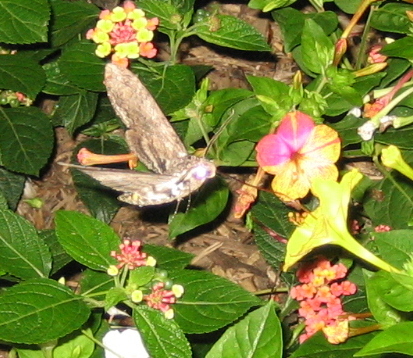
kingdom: Animalia
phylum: Arthropoda
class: Insecta
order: Lepidoptera
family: Sphingidae
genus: Manduca
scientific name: Manduca sexta
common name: Carolina sphinx
